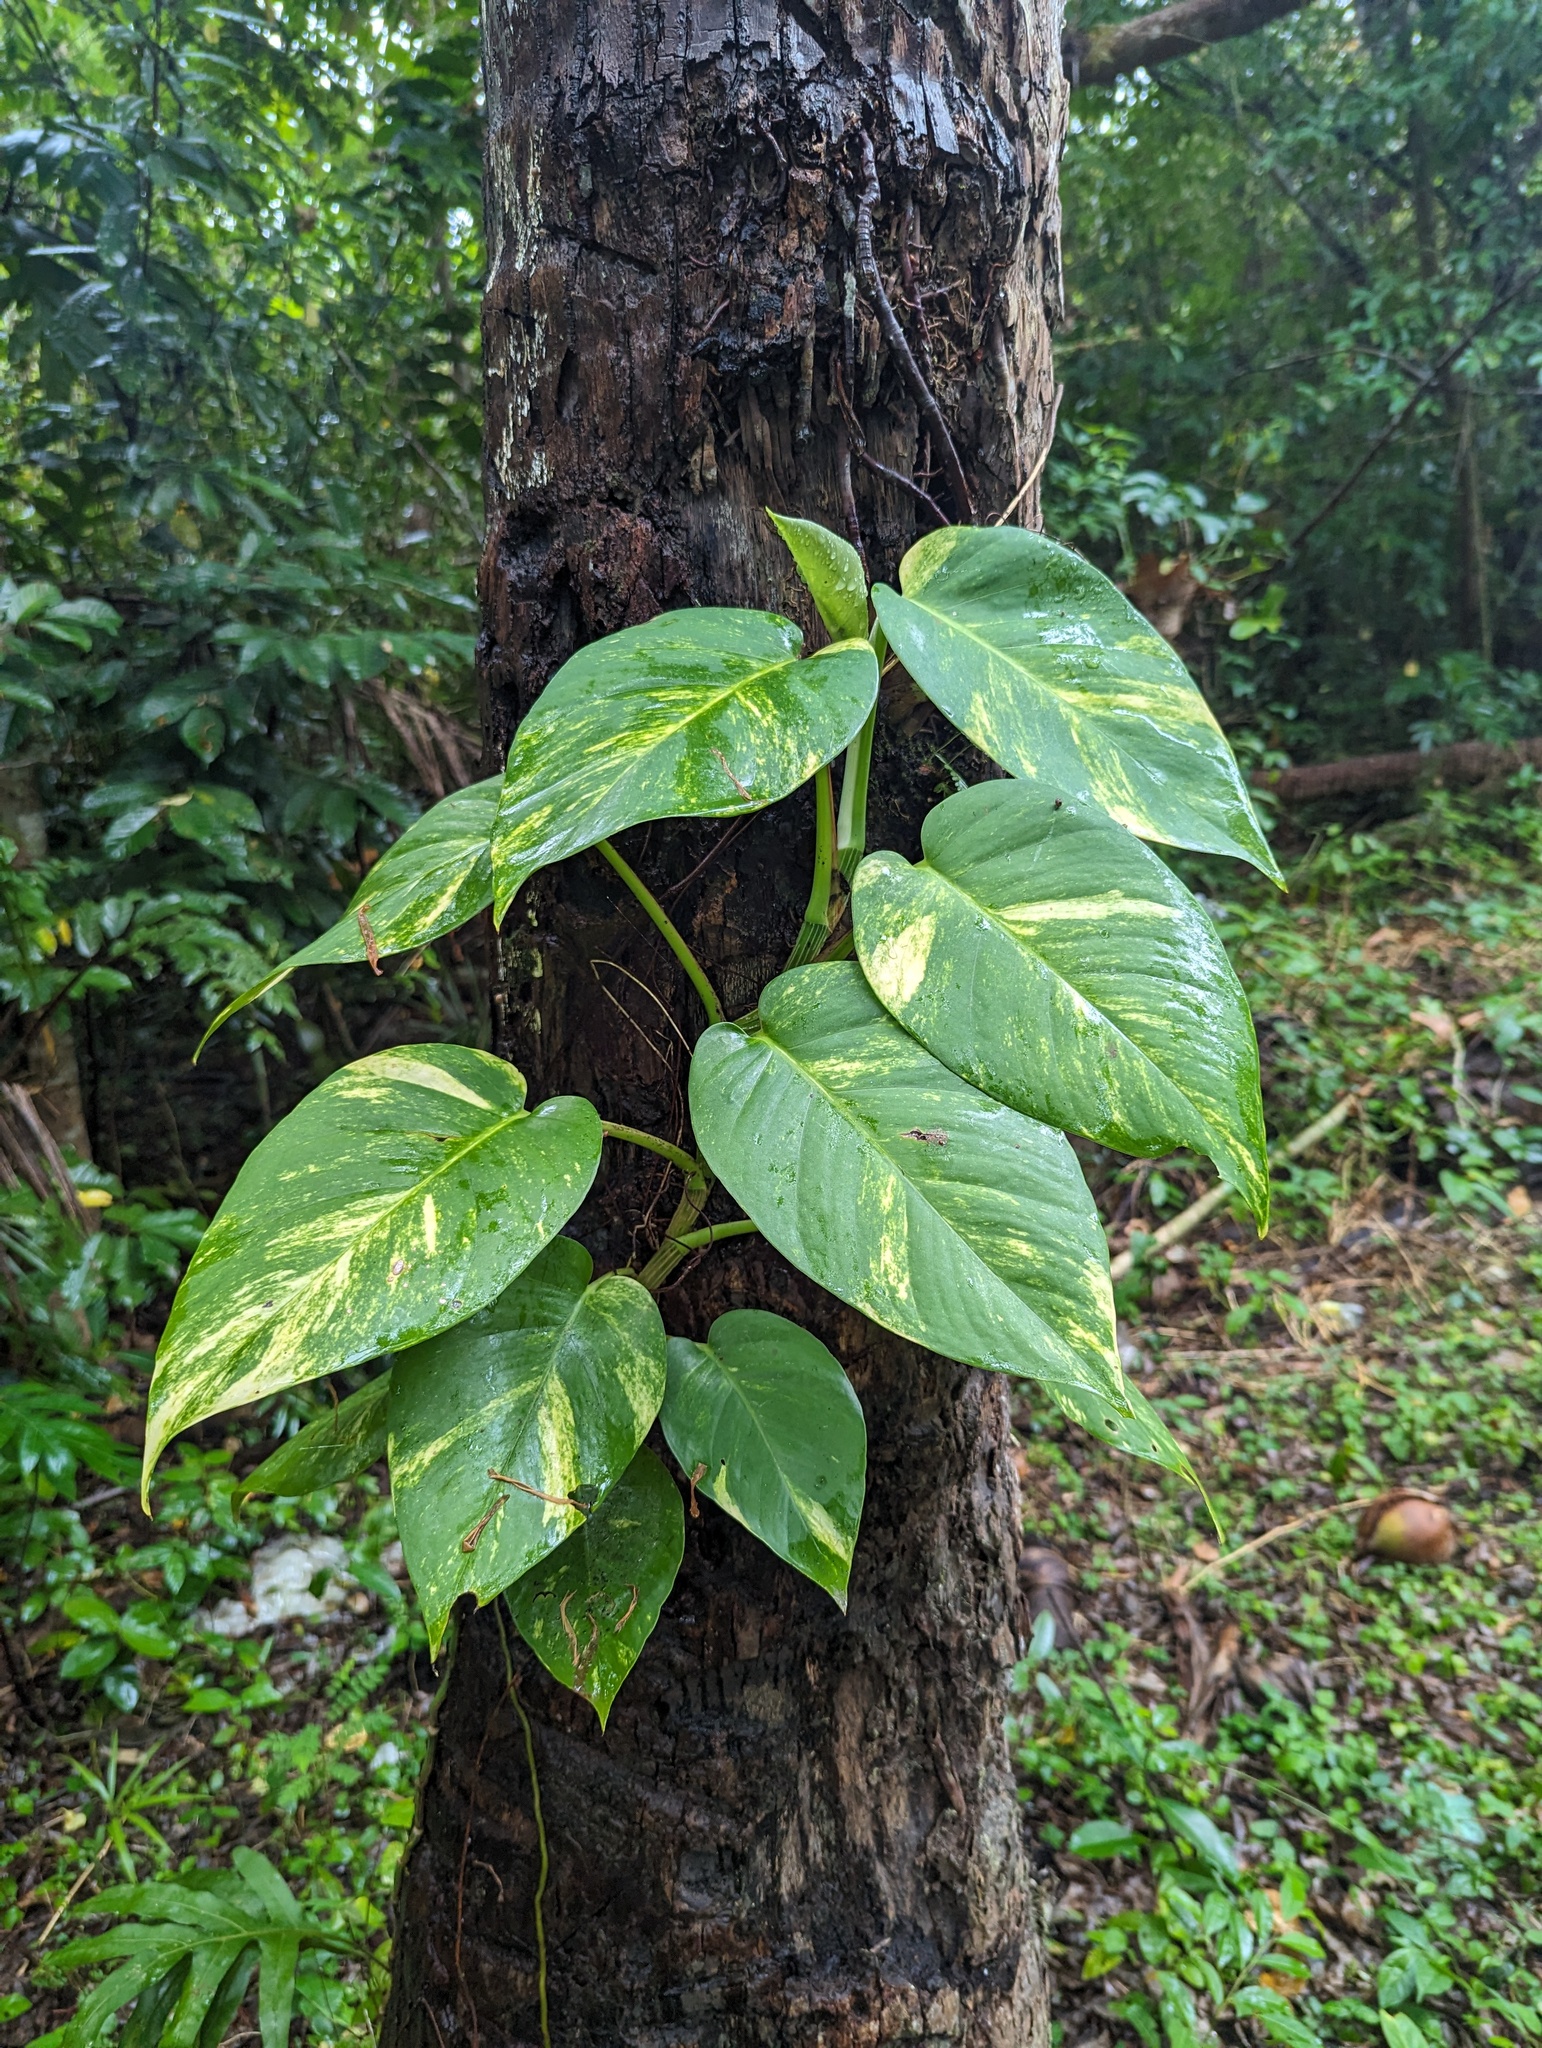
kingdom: Plantae
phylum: Tracheophyta
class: Liliopsida
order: Alismatales
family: Araceae
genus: Epipremnum
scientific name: Epipremnum aureum
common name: Golden hunter's-robe
